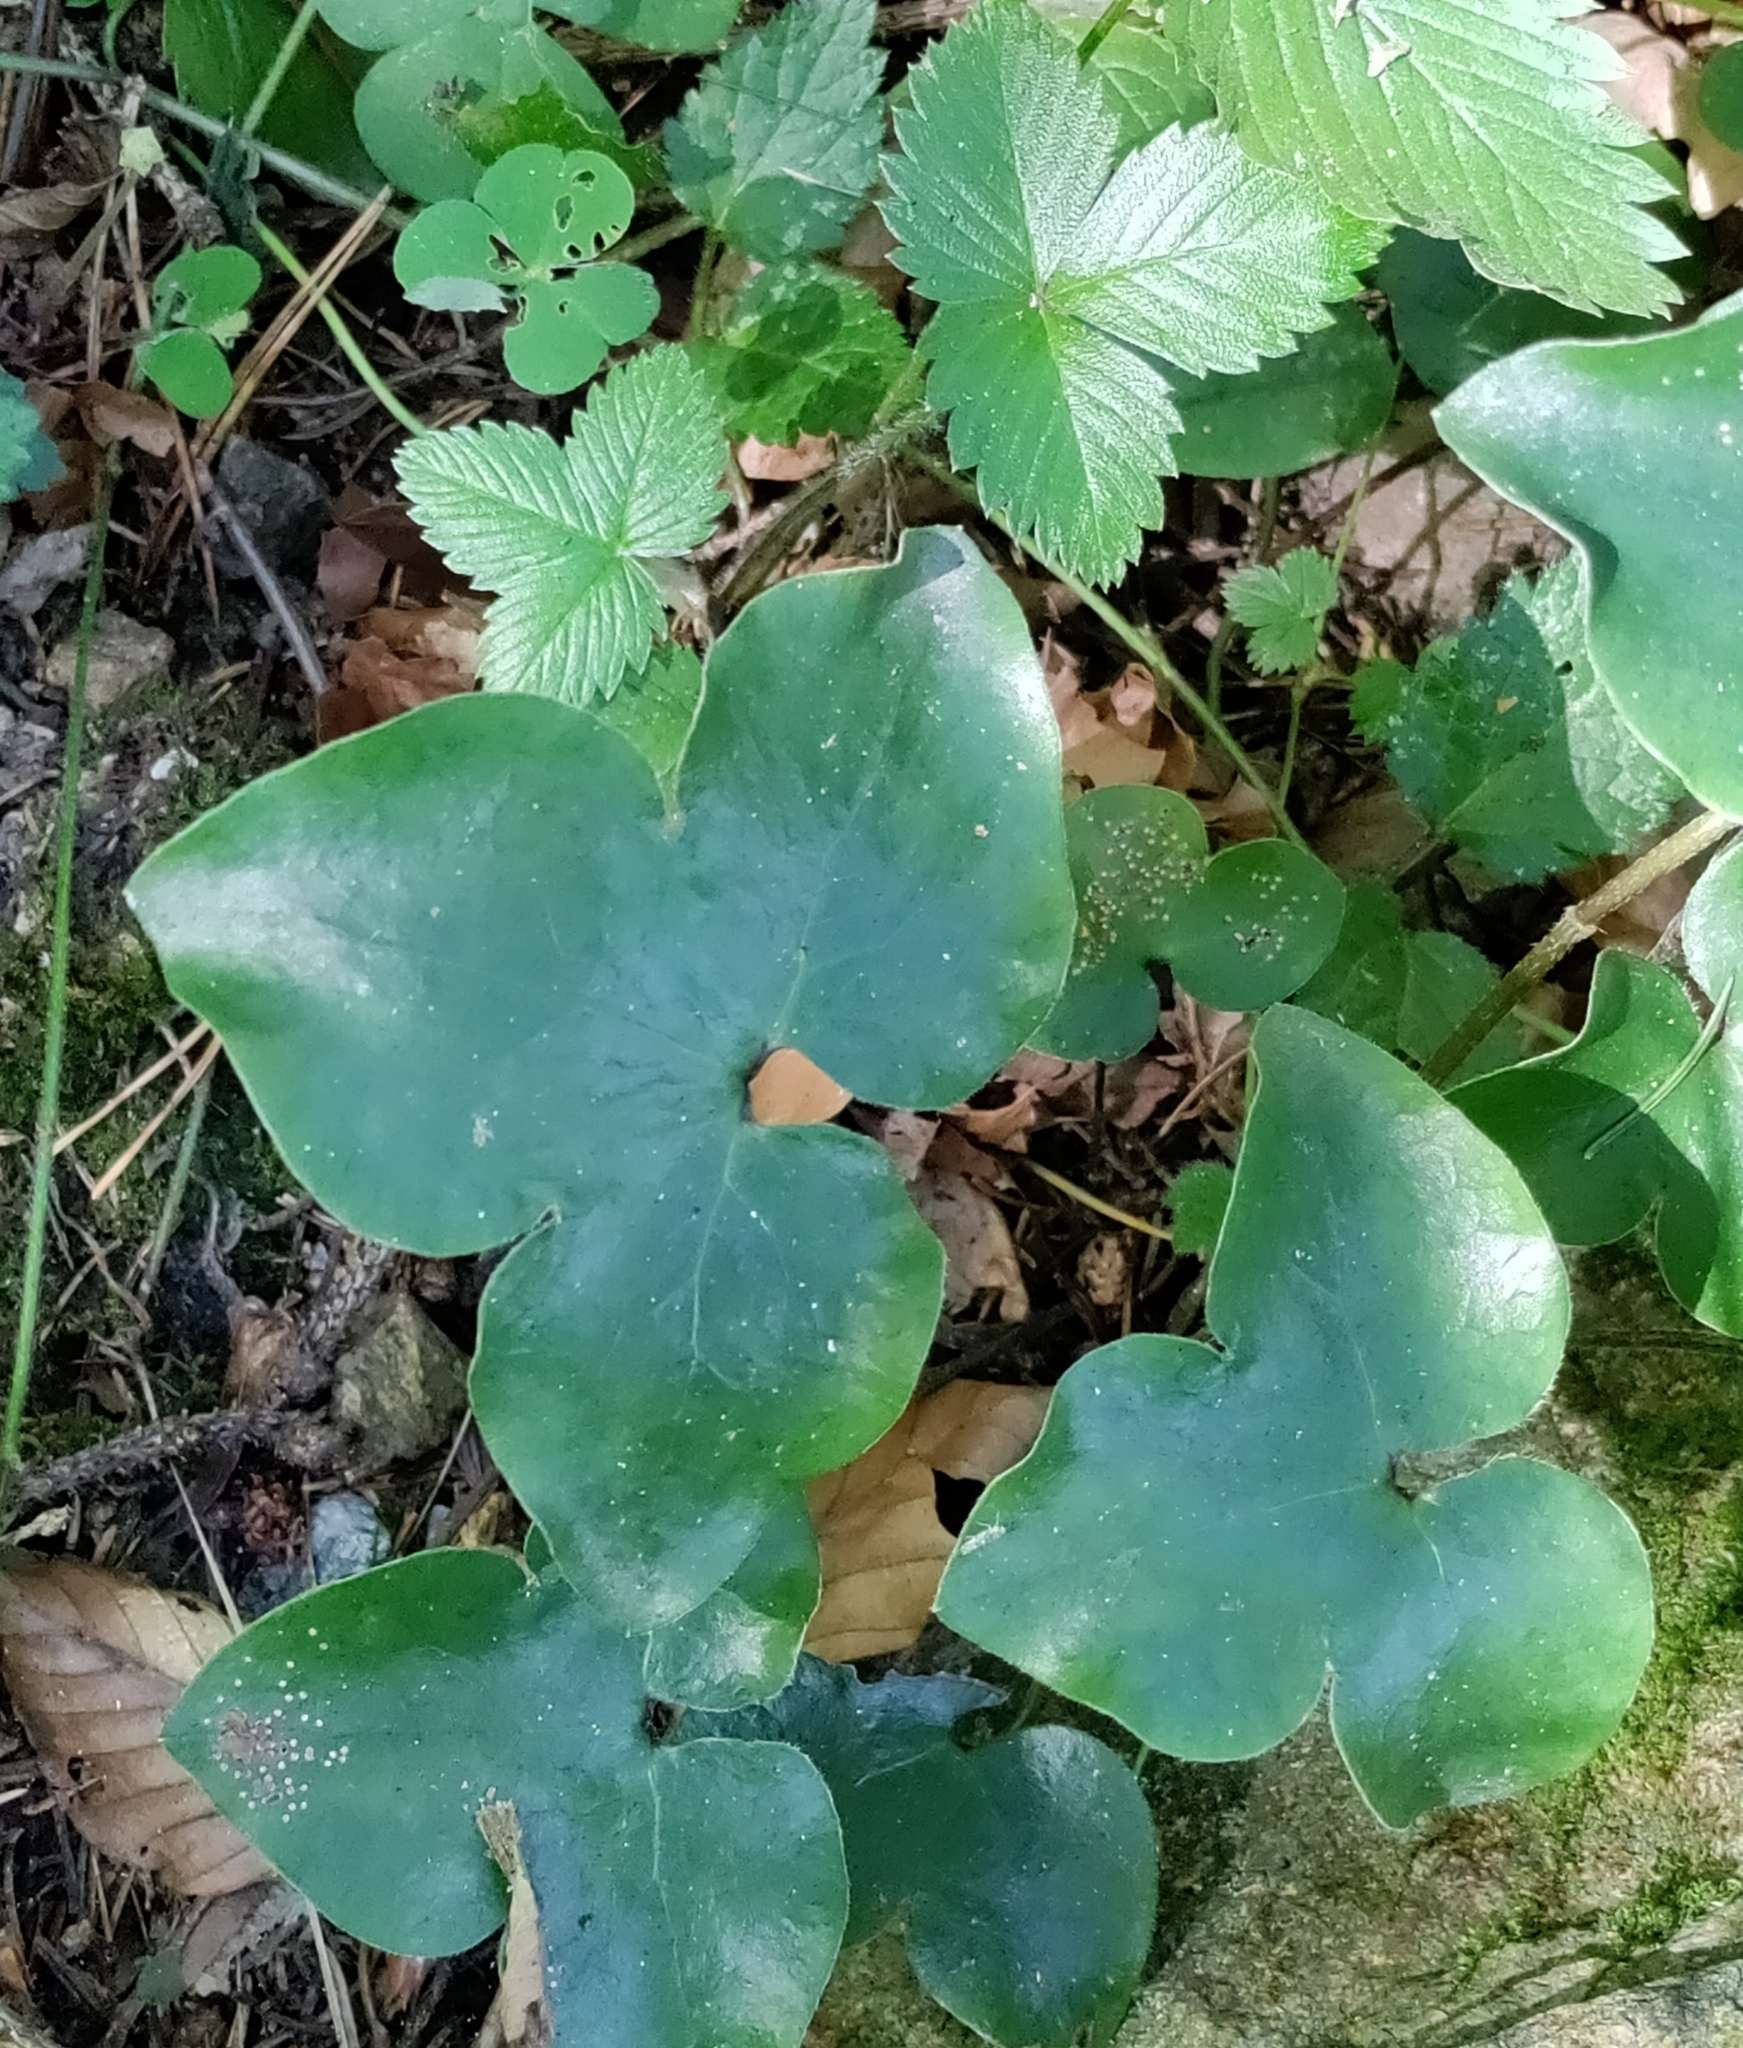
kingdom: Plantae
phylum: Tracheophyta
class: Magnoliopsida
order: Ranunculales
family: Ranunculaceae
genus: Hepatica
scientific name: Hepatica nobilis
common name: Liverleaf
